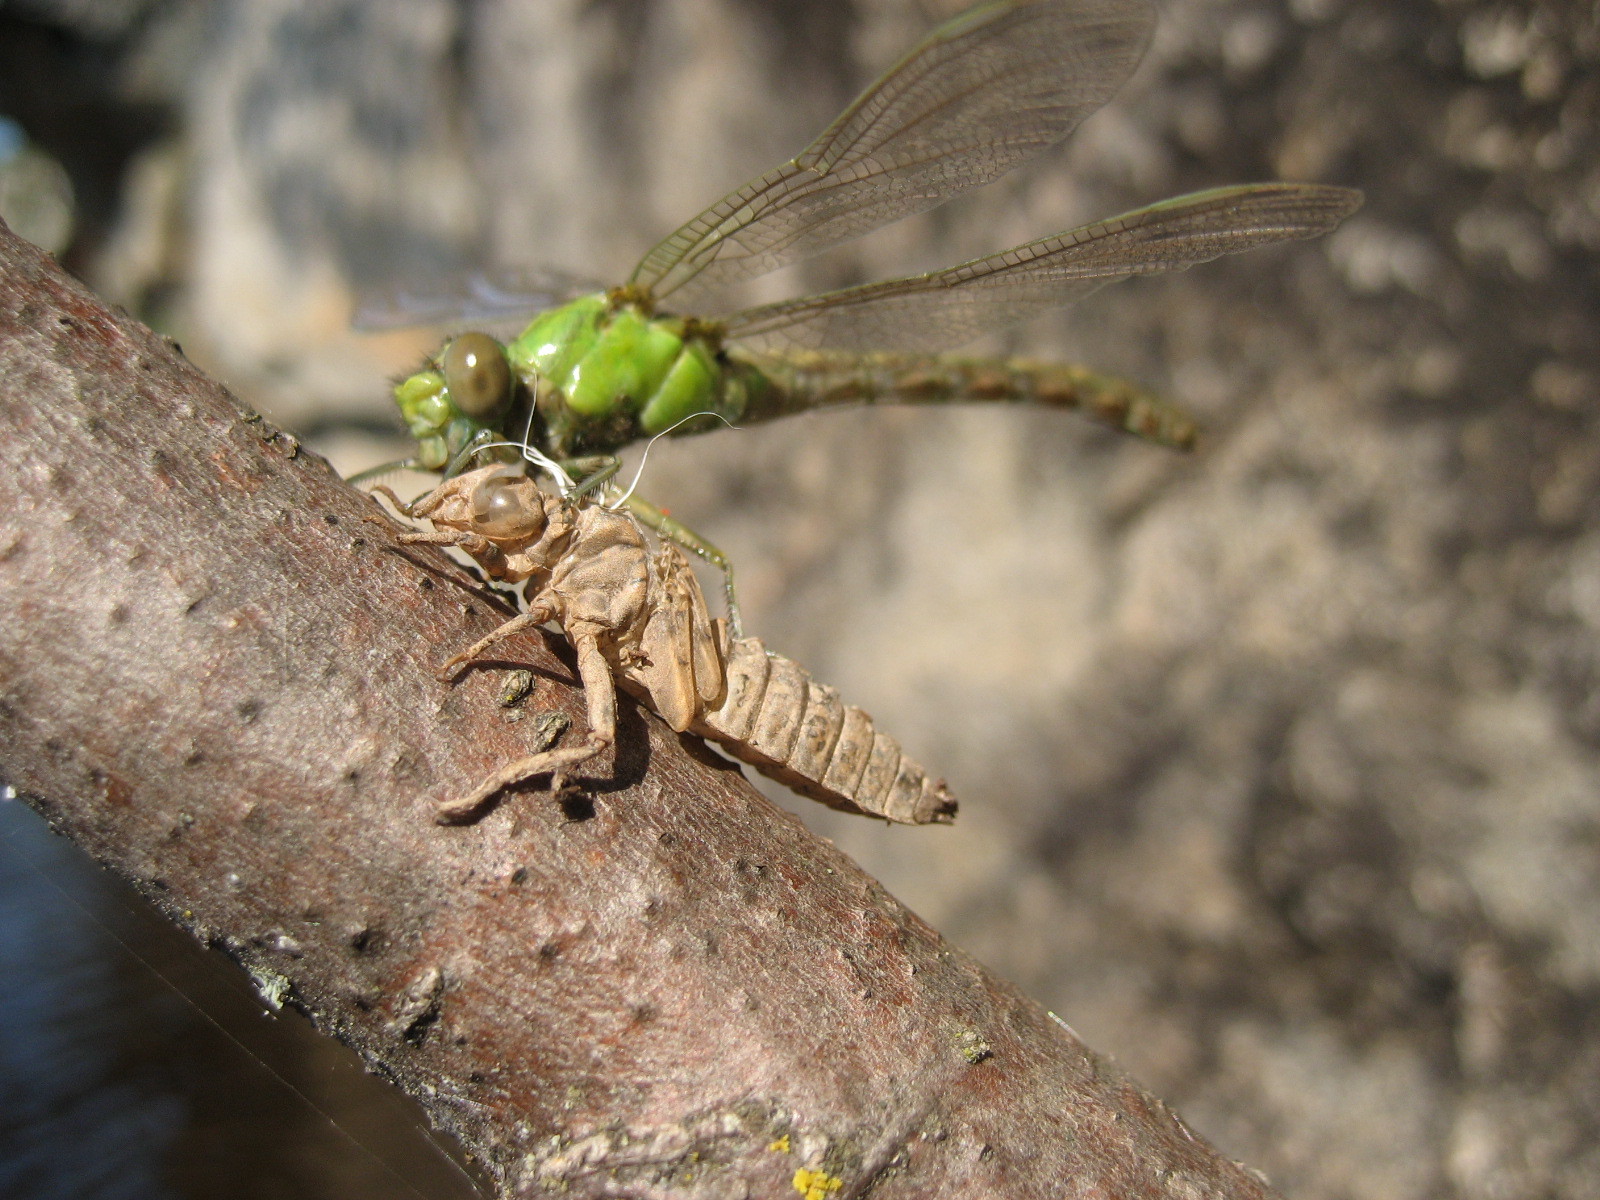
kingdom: Animalia
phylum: Arthropoda
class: Insecta
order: Odonata
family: Gomphidae
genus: Ophiogomphus
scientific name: Ophiogomphus rupinsulensis
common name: Rusty snaketail
